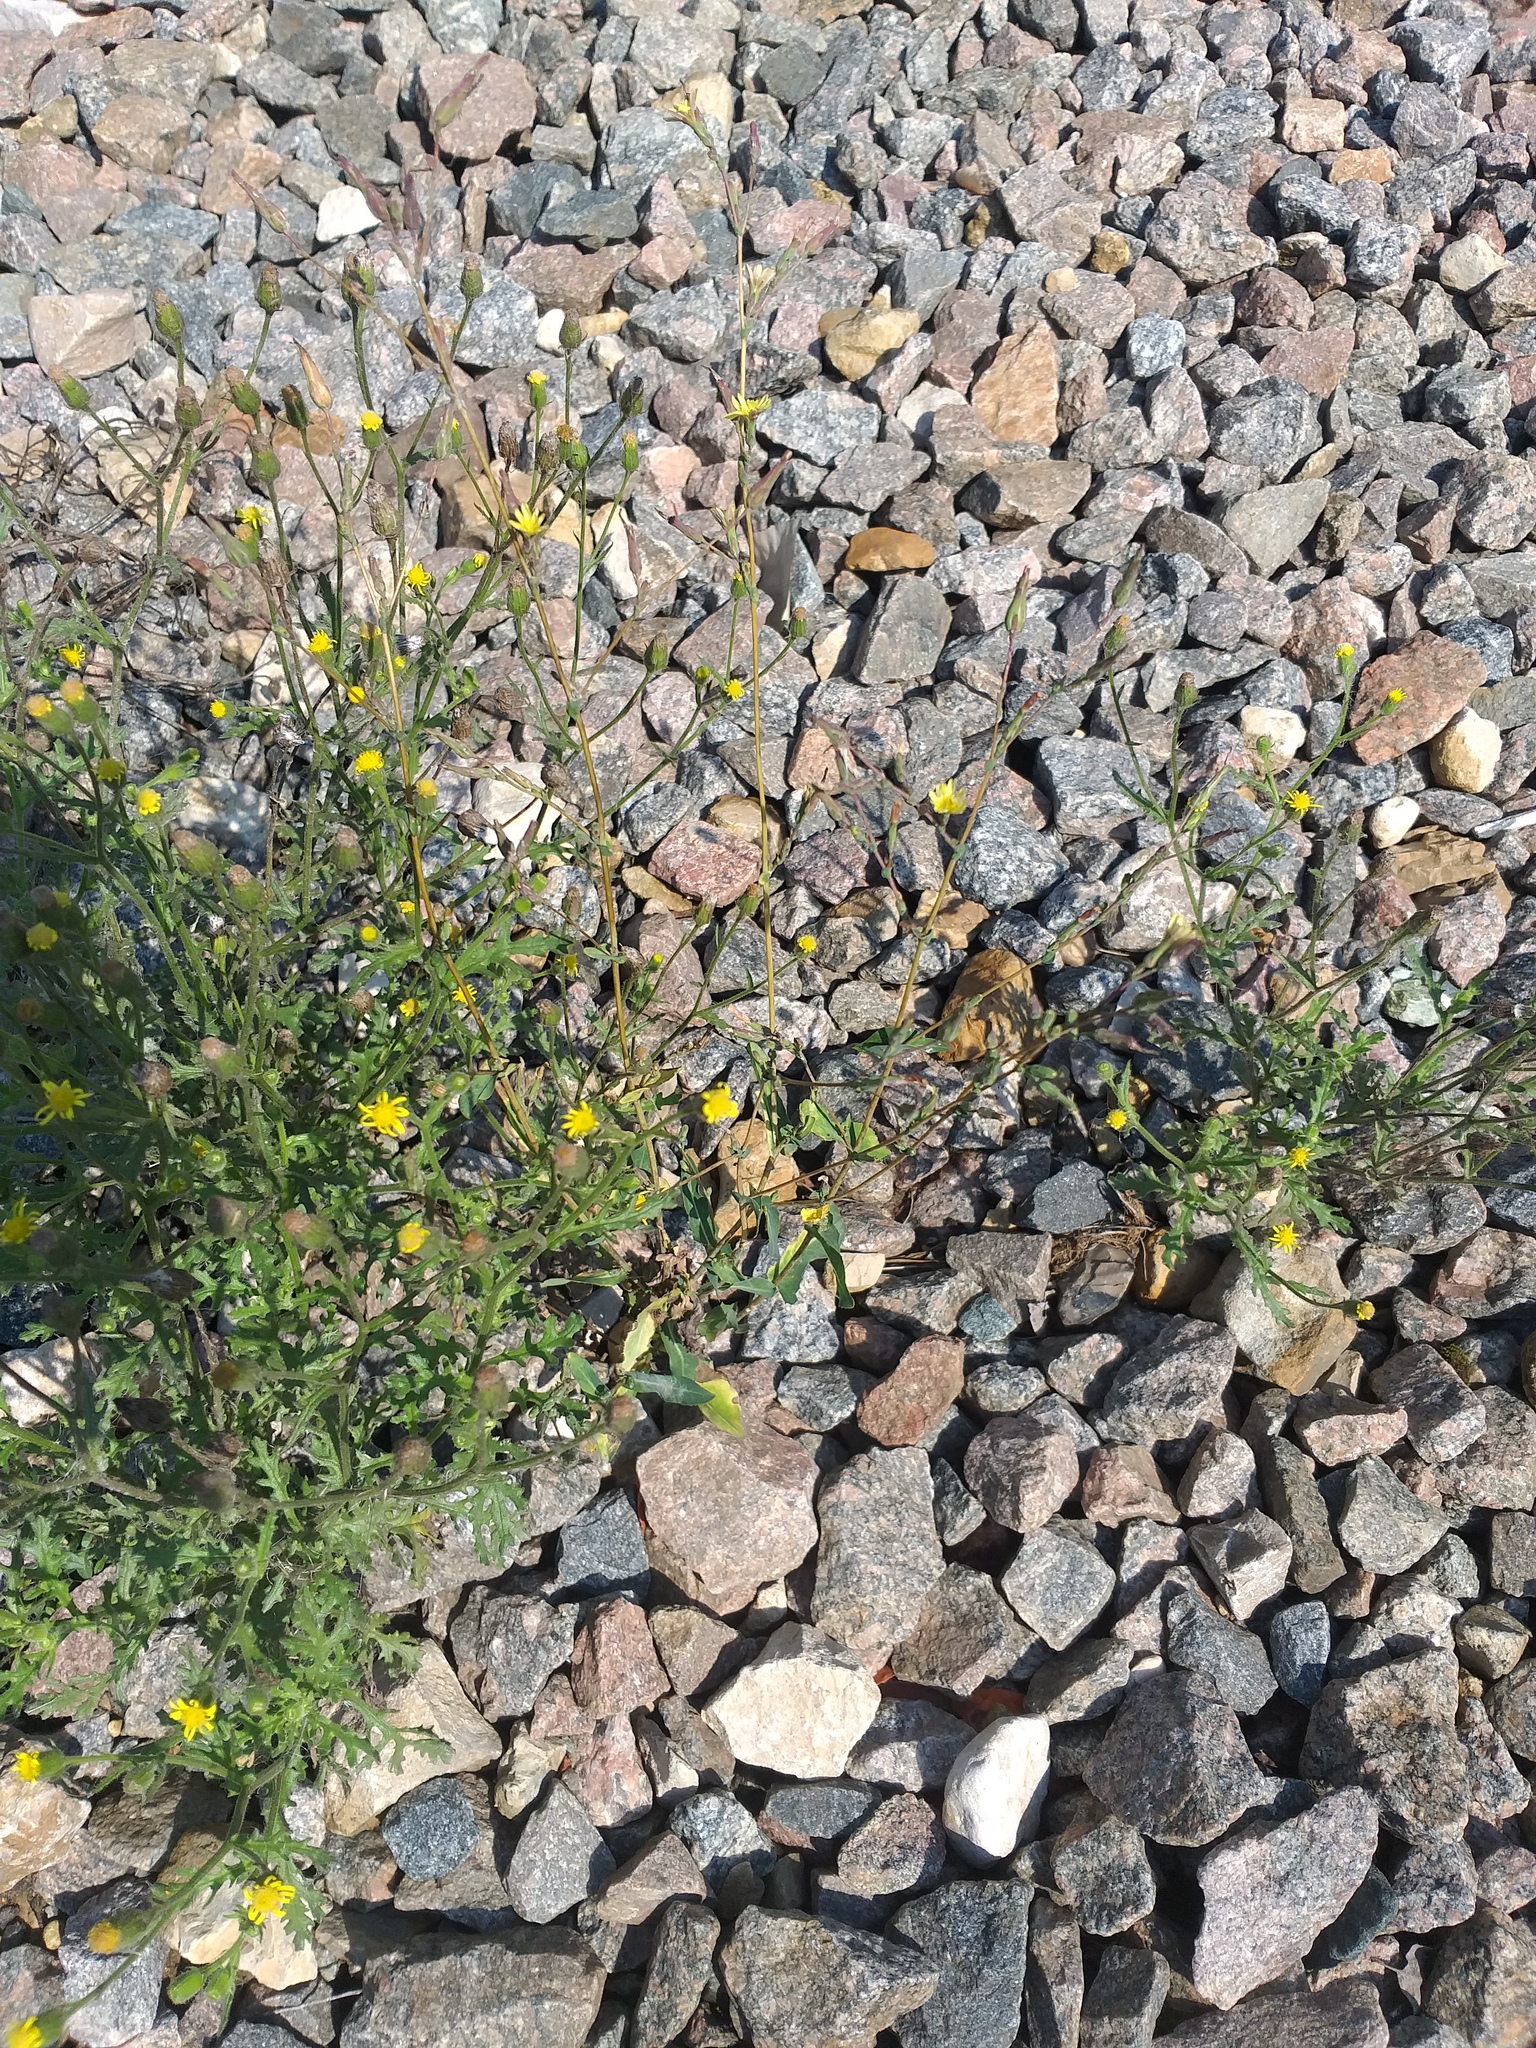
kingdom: Plantae
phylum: Tracheophyta
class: Magnoliopsida
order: Asterales
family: Asteraceae
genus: Lactuca
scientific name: Lactuca serriola
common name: Prickly lettuce
